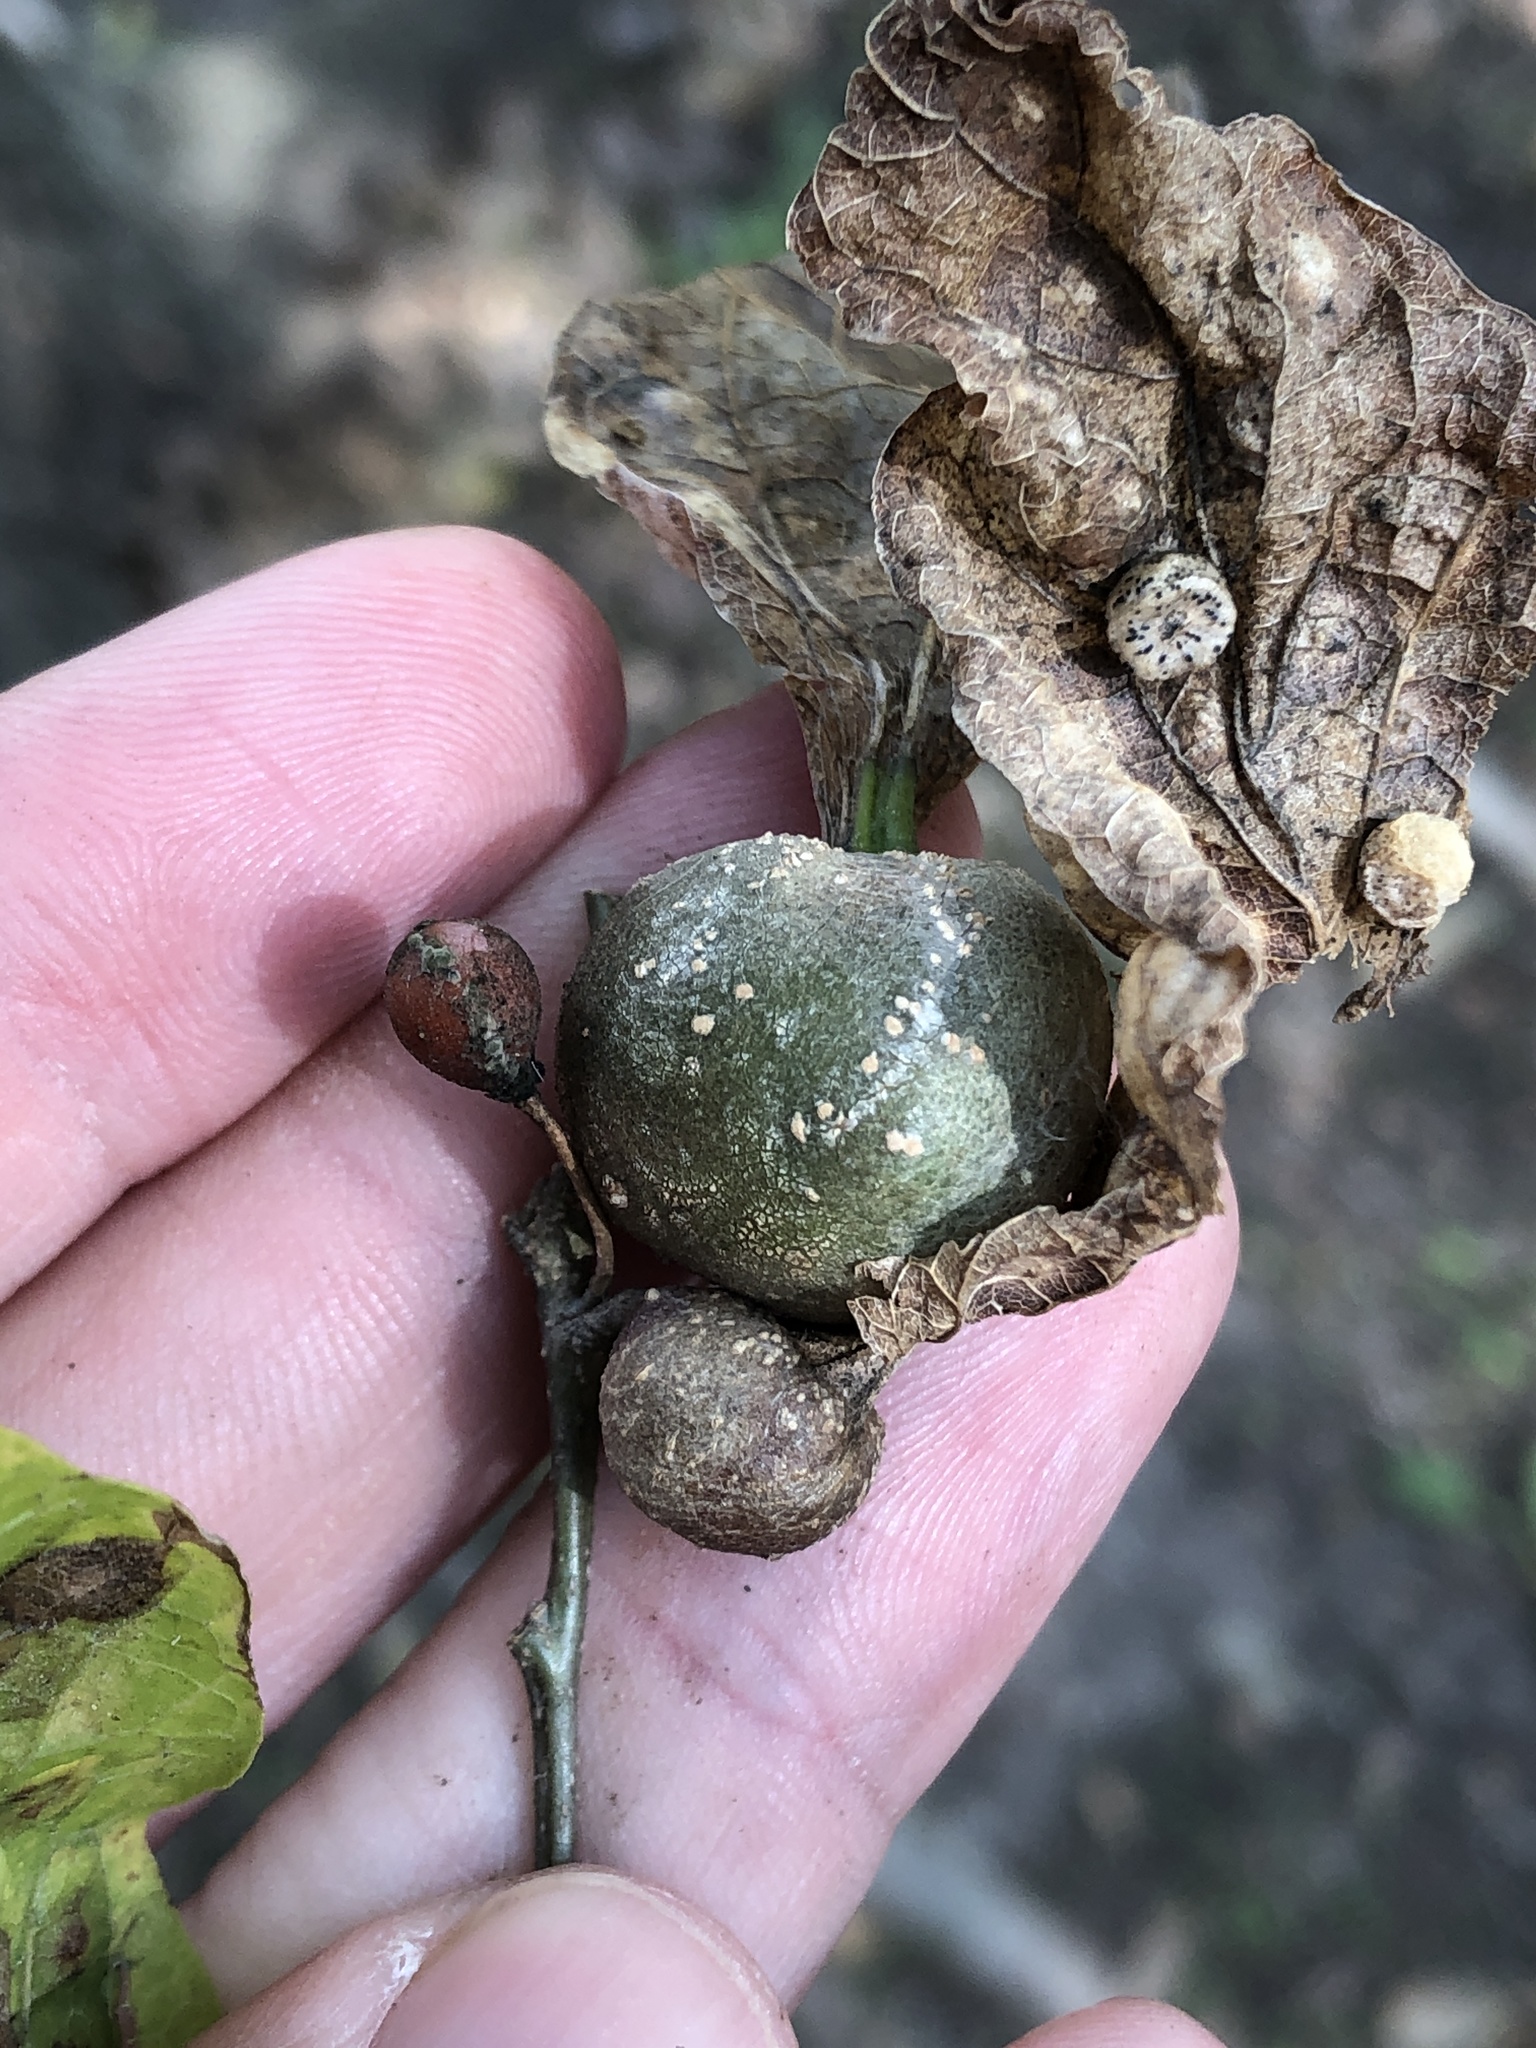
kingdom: Animalia
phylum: Arthropoda
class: Insecta
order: Hemiptera
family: Aphalaridae
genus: Pachypsylla
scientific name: Pachypsylla venusta
